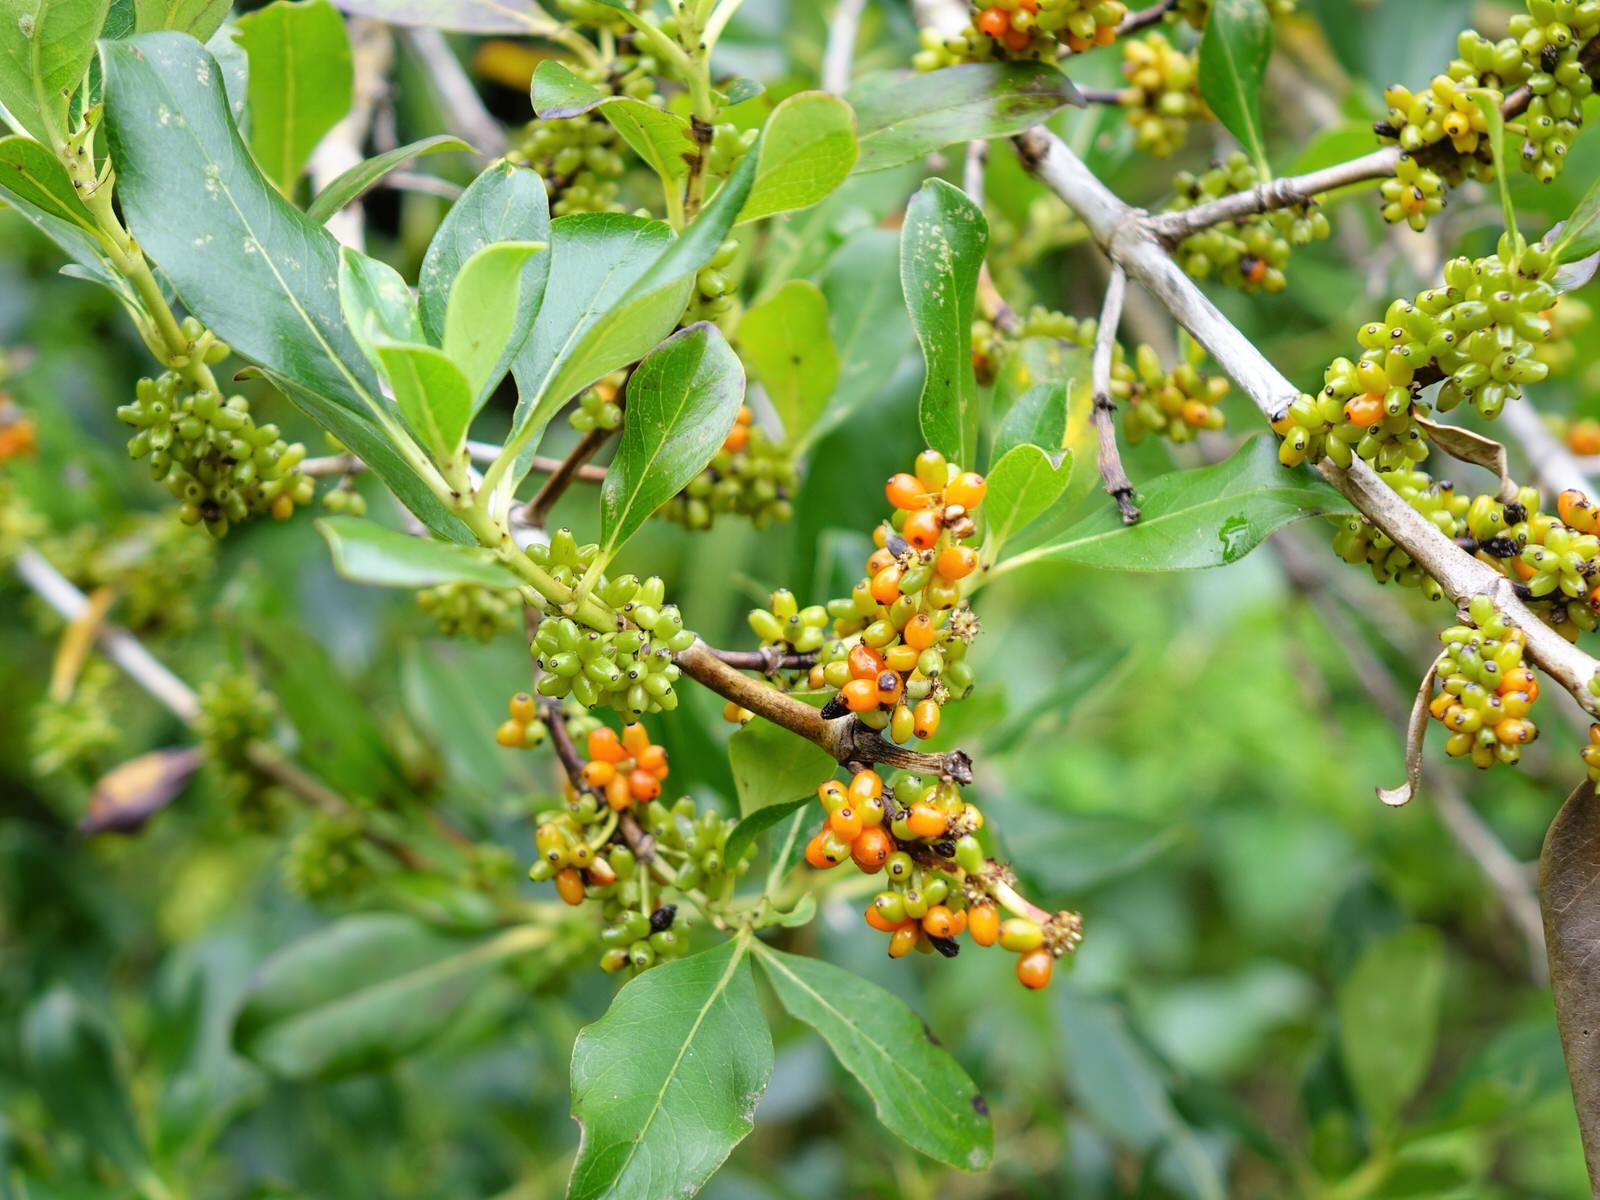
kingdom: Plantae
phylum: Tracheophyta
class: Magnoliopsida
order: Gentianales
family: Rubiaceae
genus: Coprosma
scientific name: Coprosma robusta
